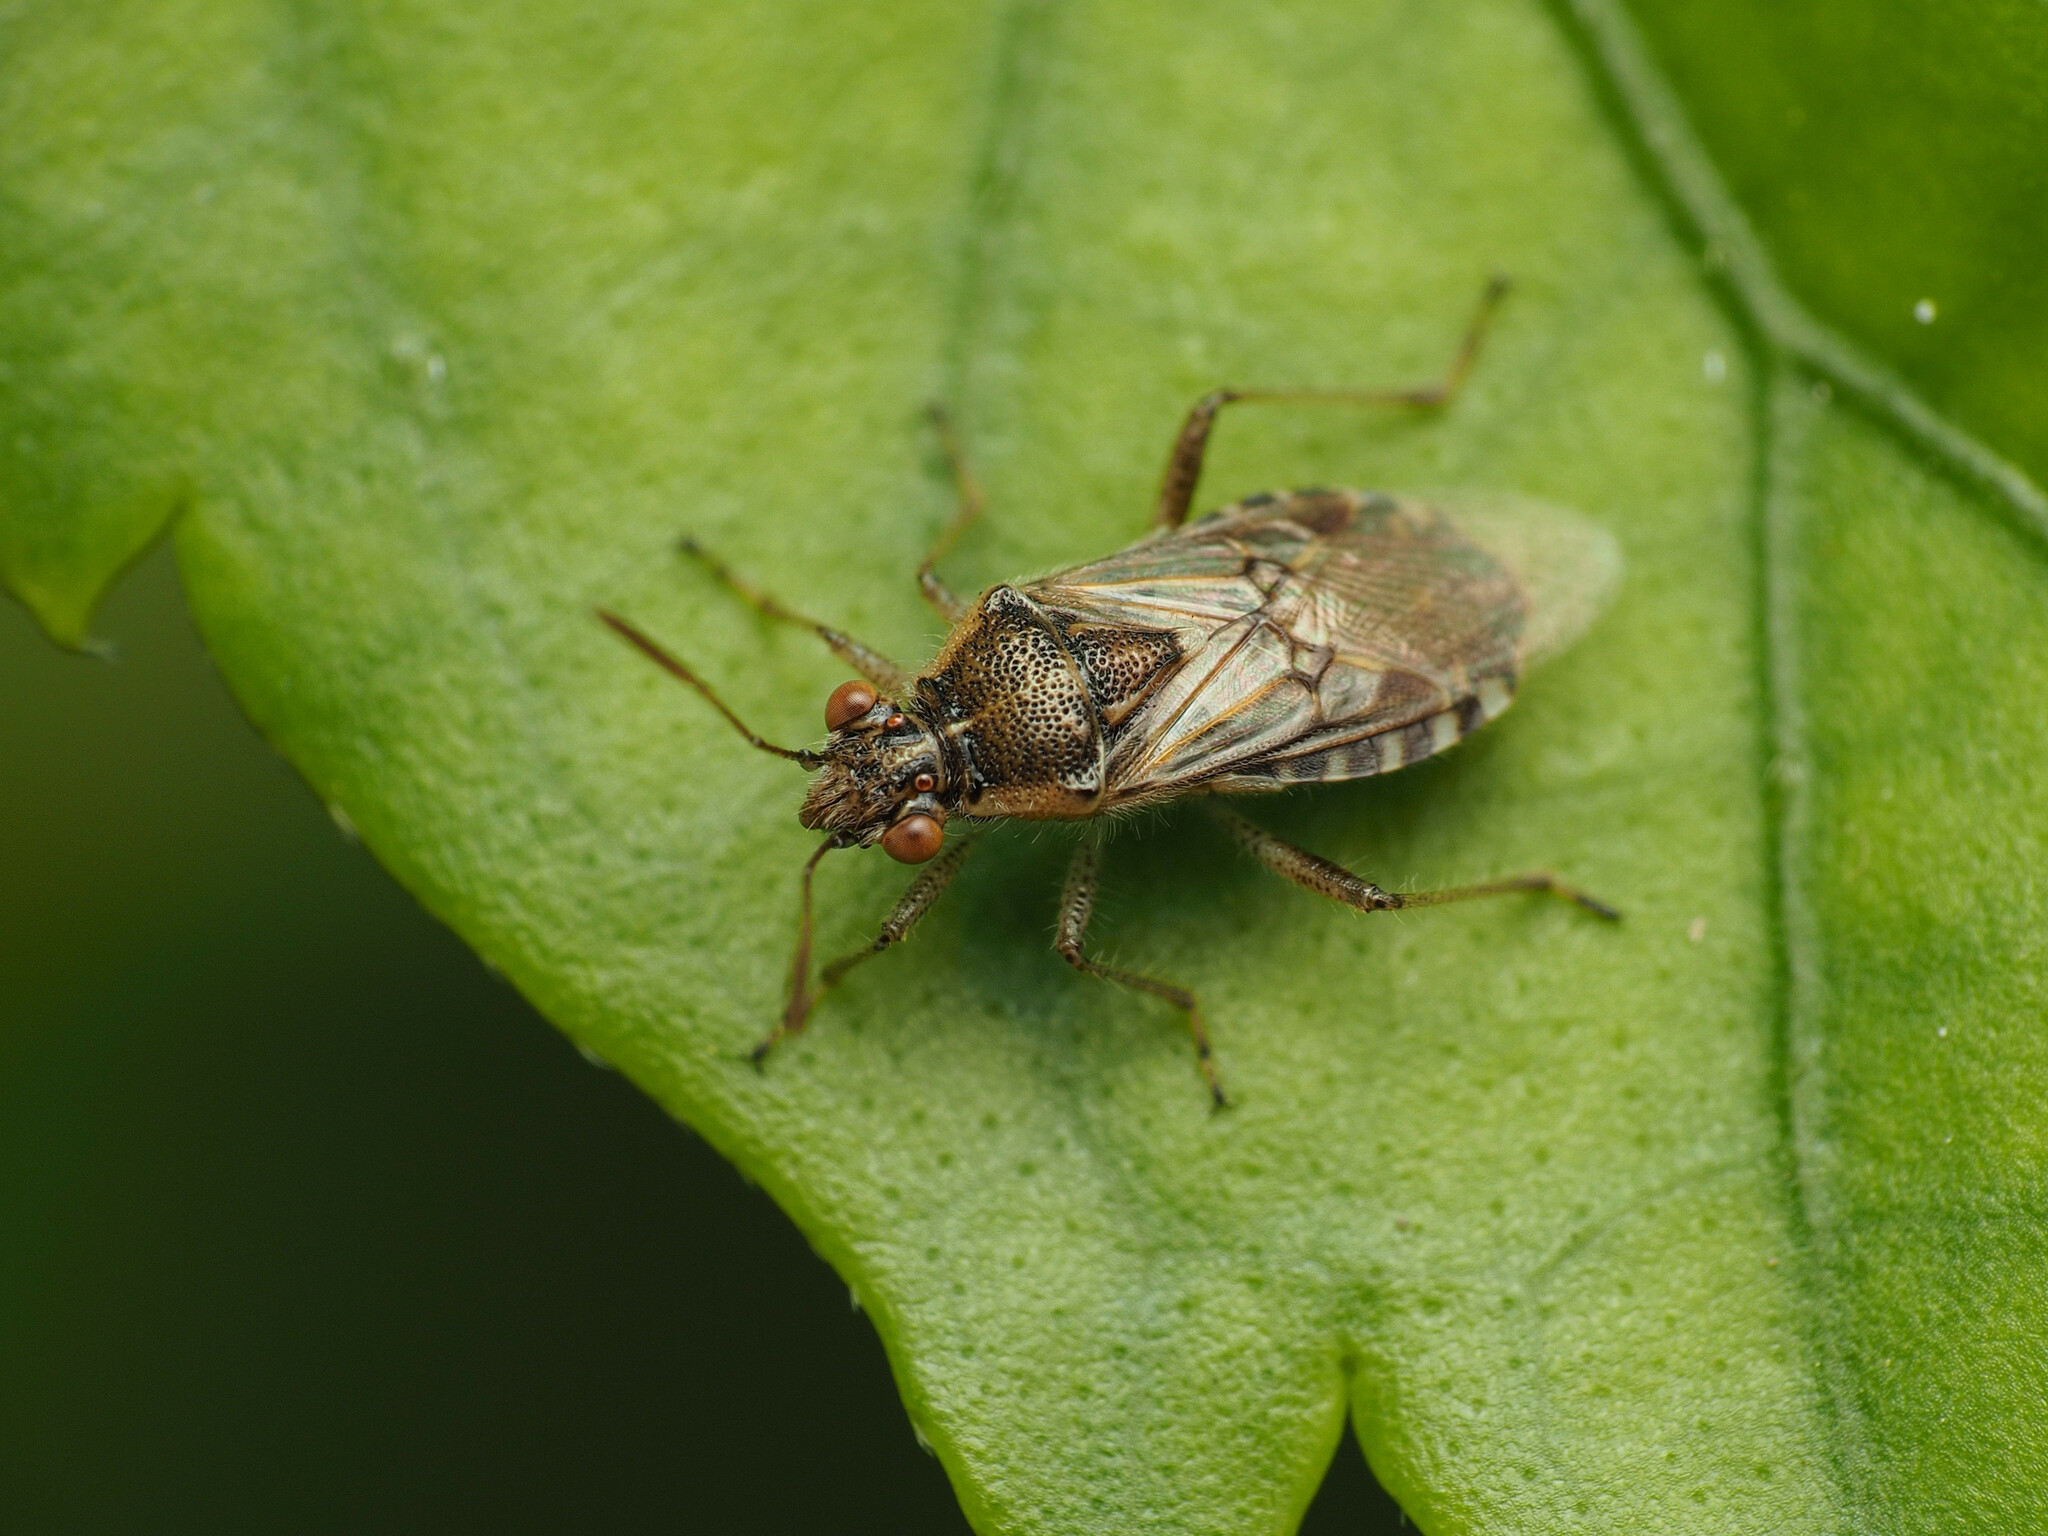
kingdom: Animalia
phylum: Arthropoda
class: Insecta
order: Hemiptera
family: Rhopalidae
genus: Liorhyssus
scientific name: Liorhyssus hyalinus
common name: Scentless plant bug
